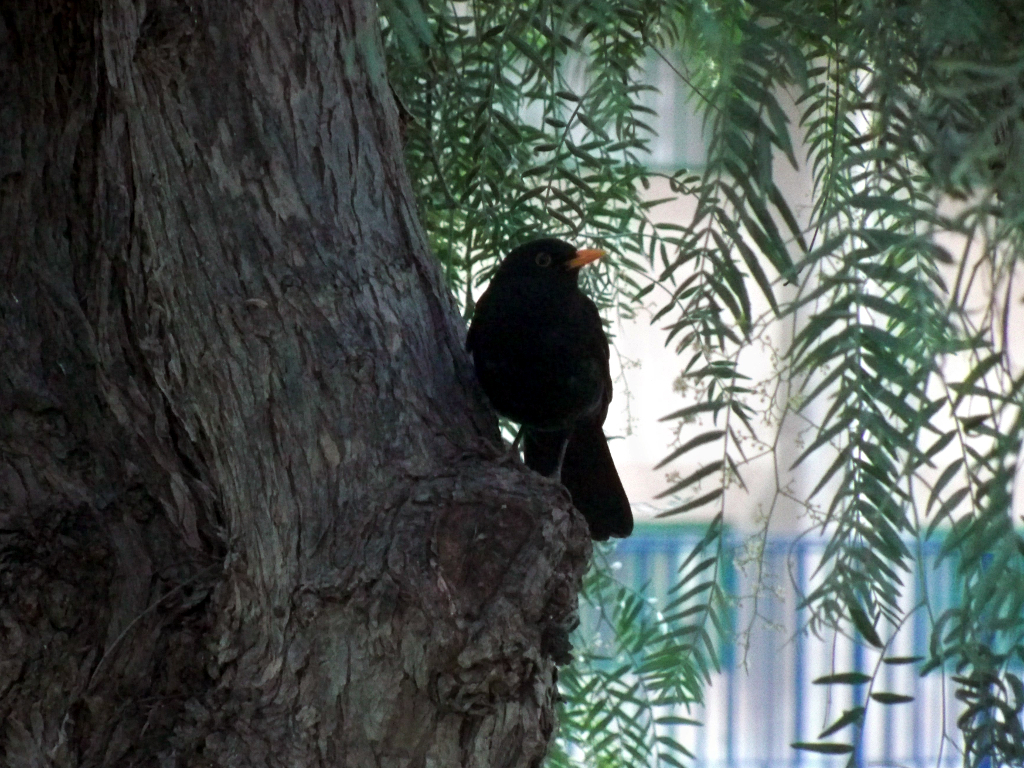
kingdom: Animalia
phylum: Chordata
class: Aves
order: Passeriformes
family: Turdidae
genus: Turdus
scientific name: Turdus merula
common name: Common blackbird
